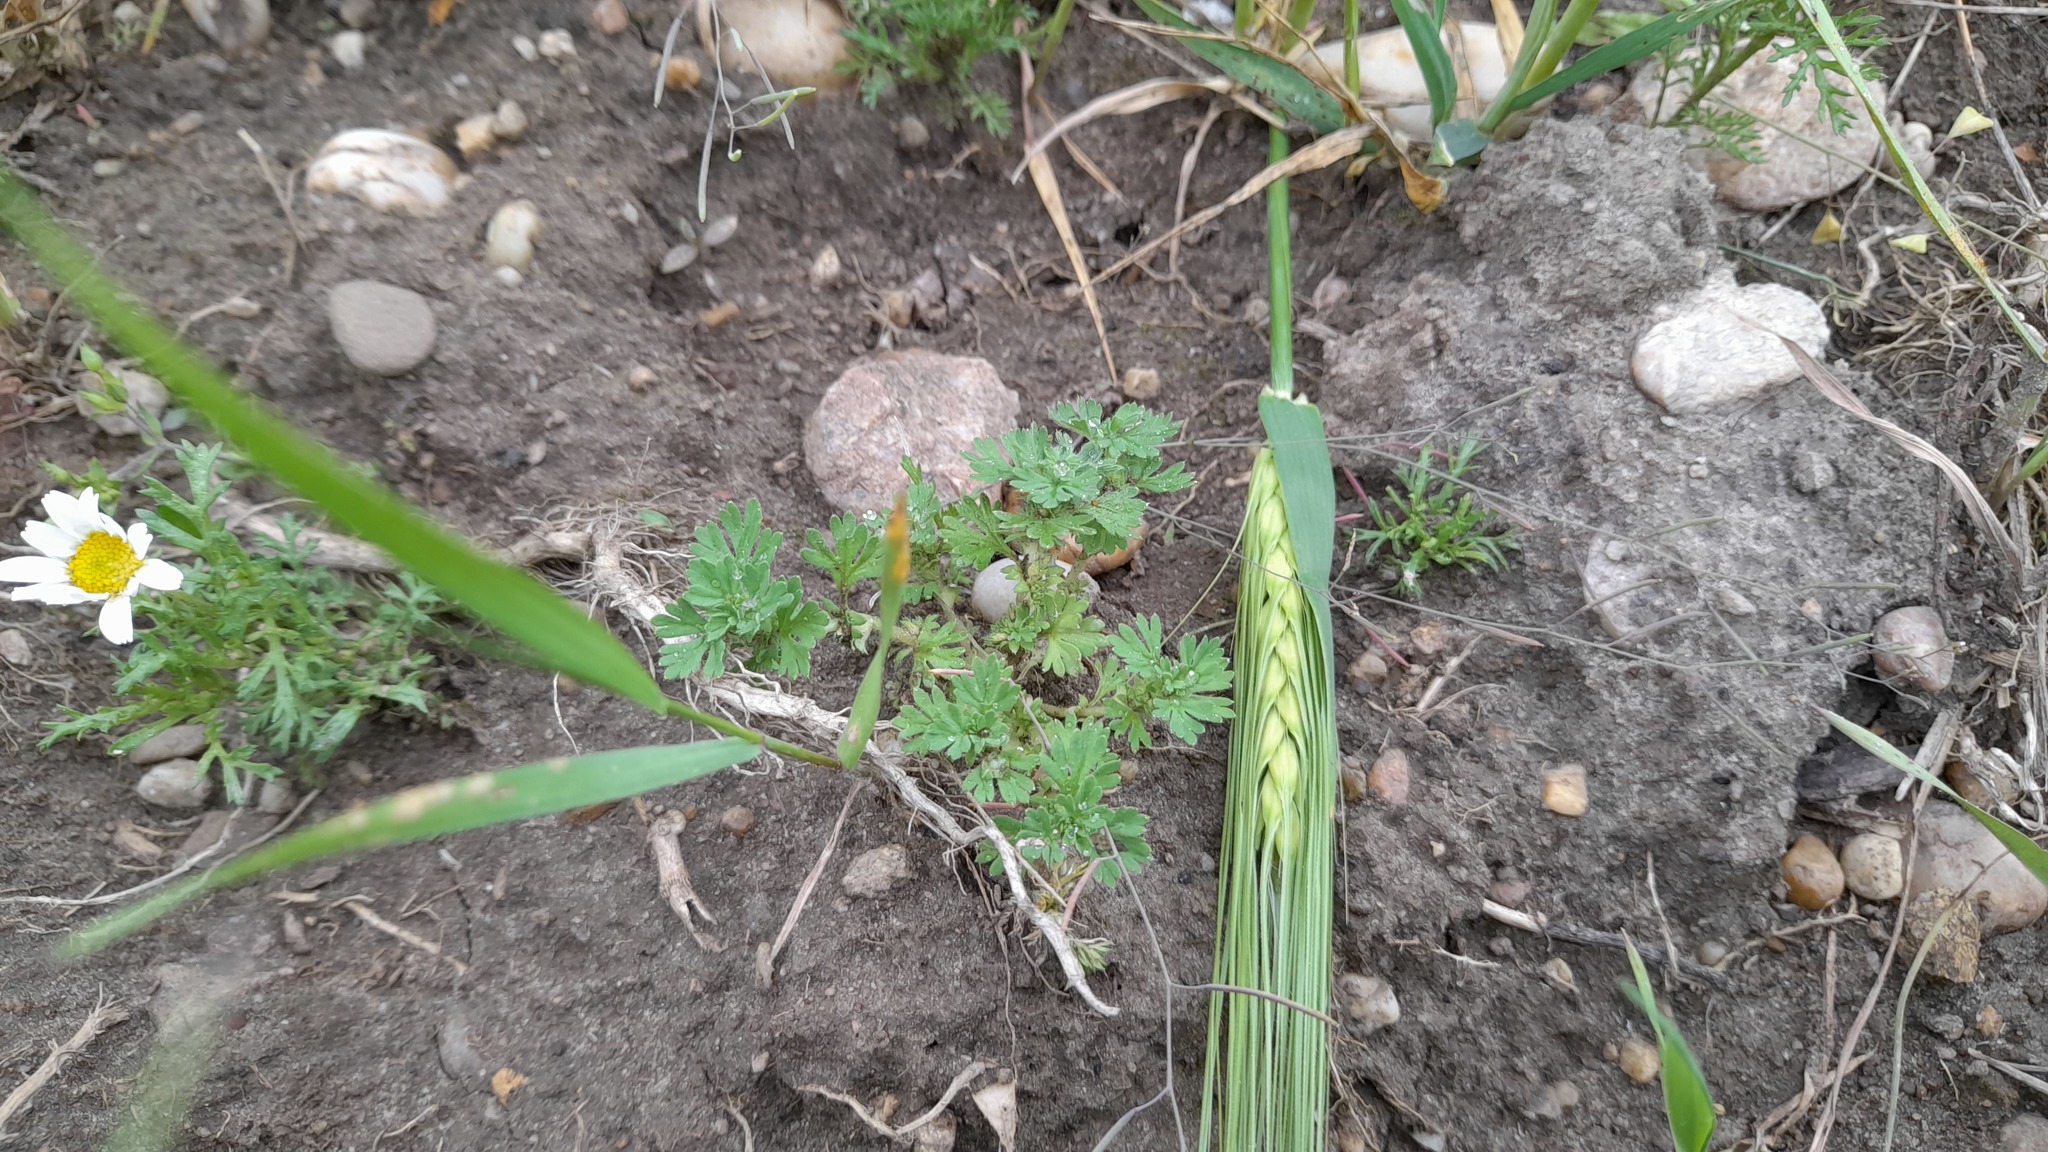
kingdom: Plantae
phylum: Tracheophyta
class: Magnoliopsida
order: Rosales
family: Rosaceae
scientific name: Rosaceae
